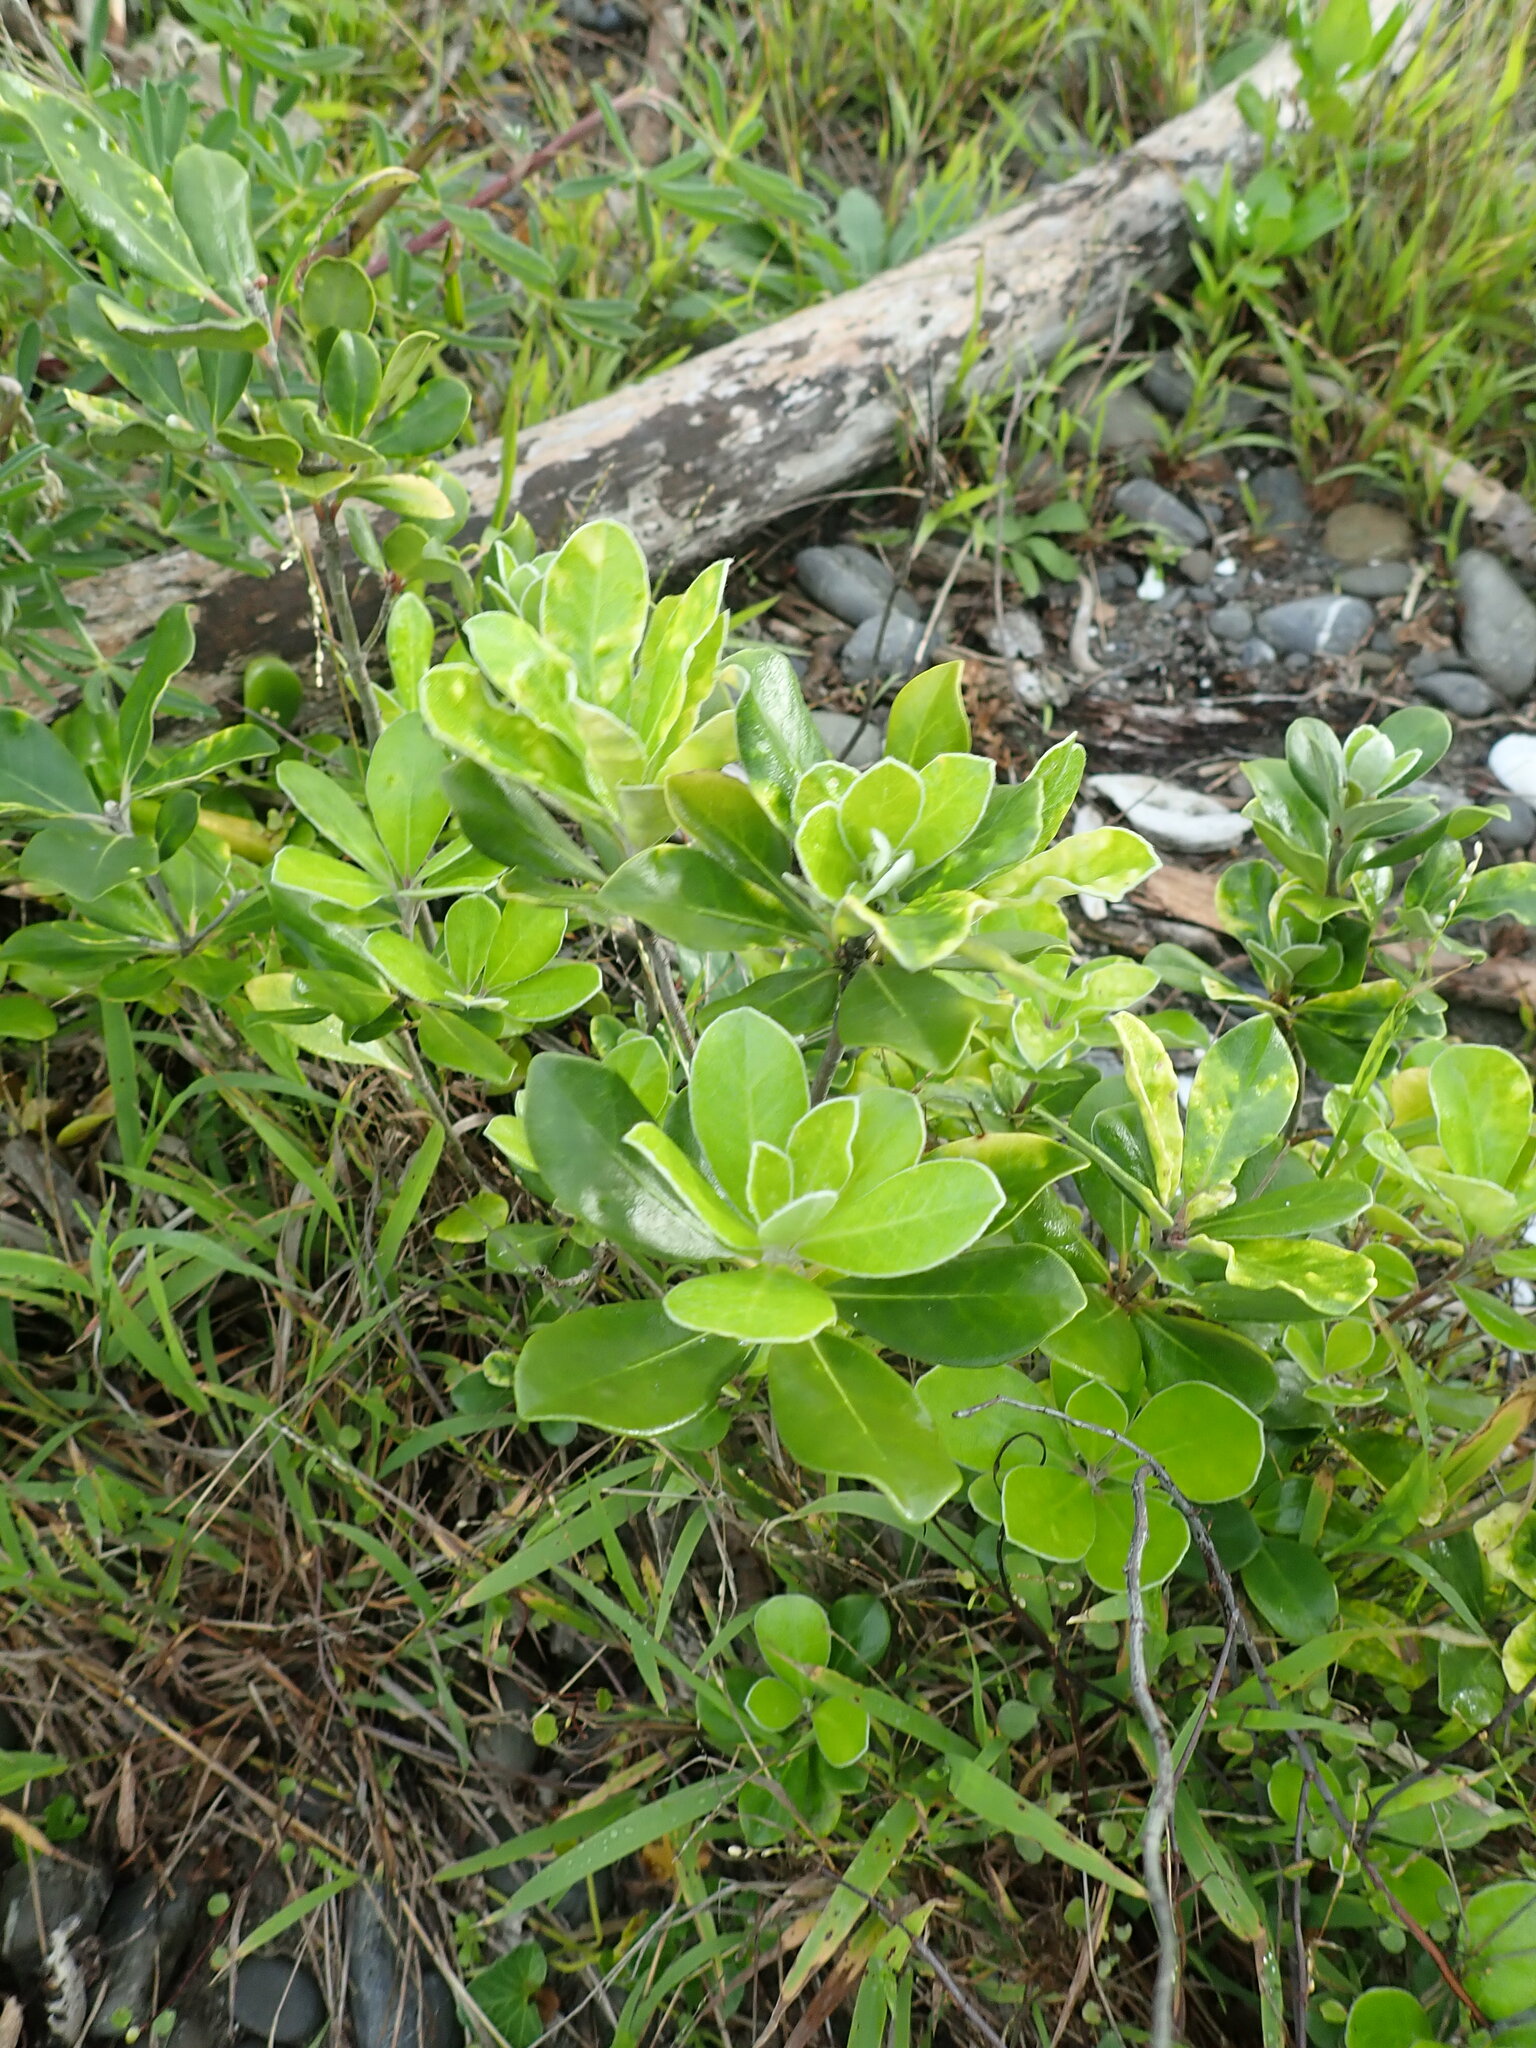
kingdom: Plantae
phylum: Tracheophyta
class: Magnoliopsida
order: Apiales
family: Pittosporaceae
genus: Pittosporum
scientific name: Pittosporum crassifolium
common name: Karo
